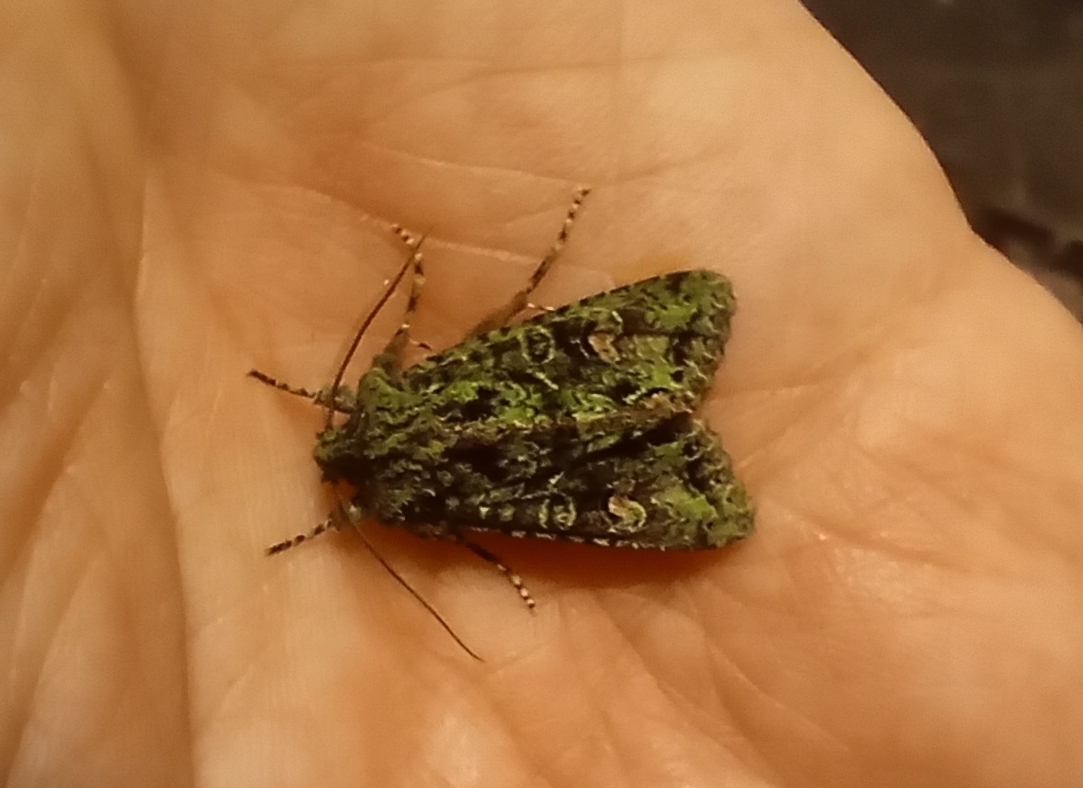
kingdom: Animalia
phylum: Arthropoda
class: Insecta
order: Lepidoptera
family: Noctuidae
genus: Ichneutica
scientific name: Ichneutica
